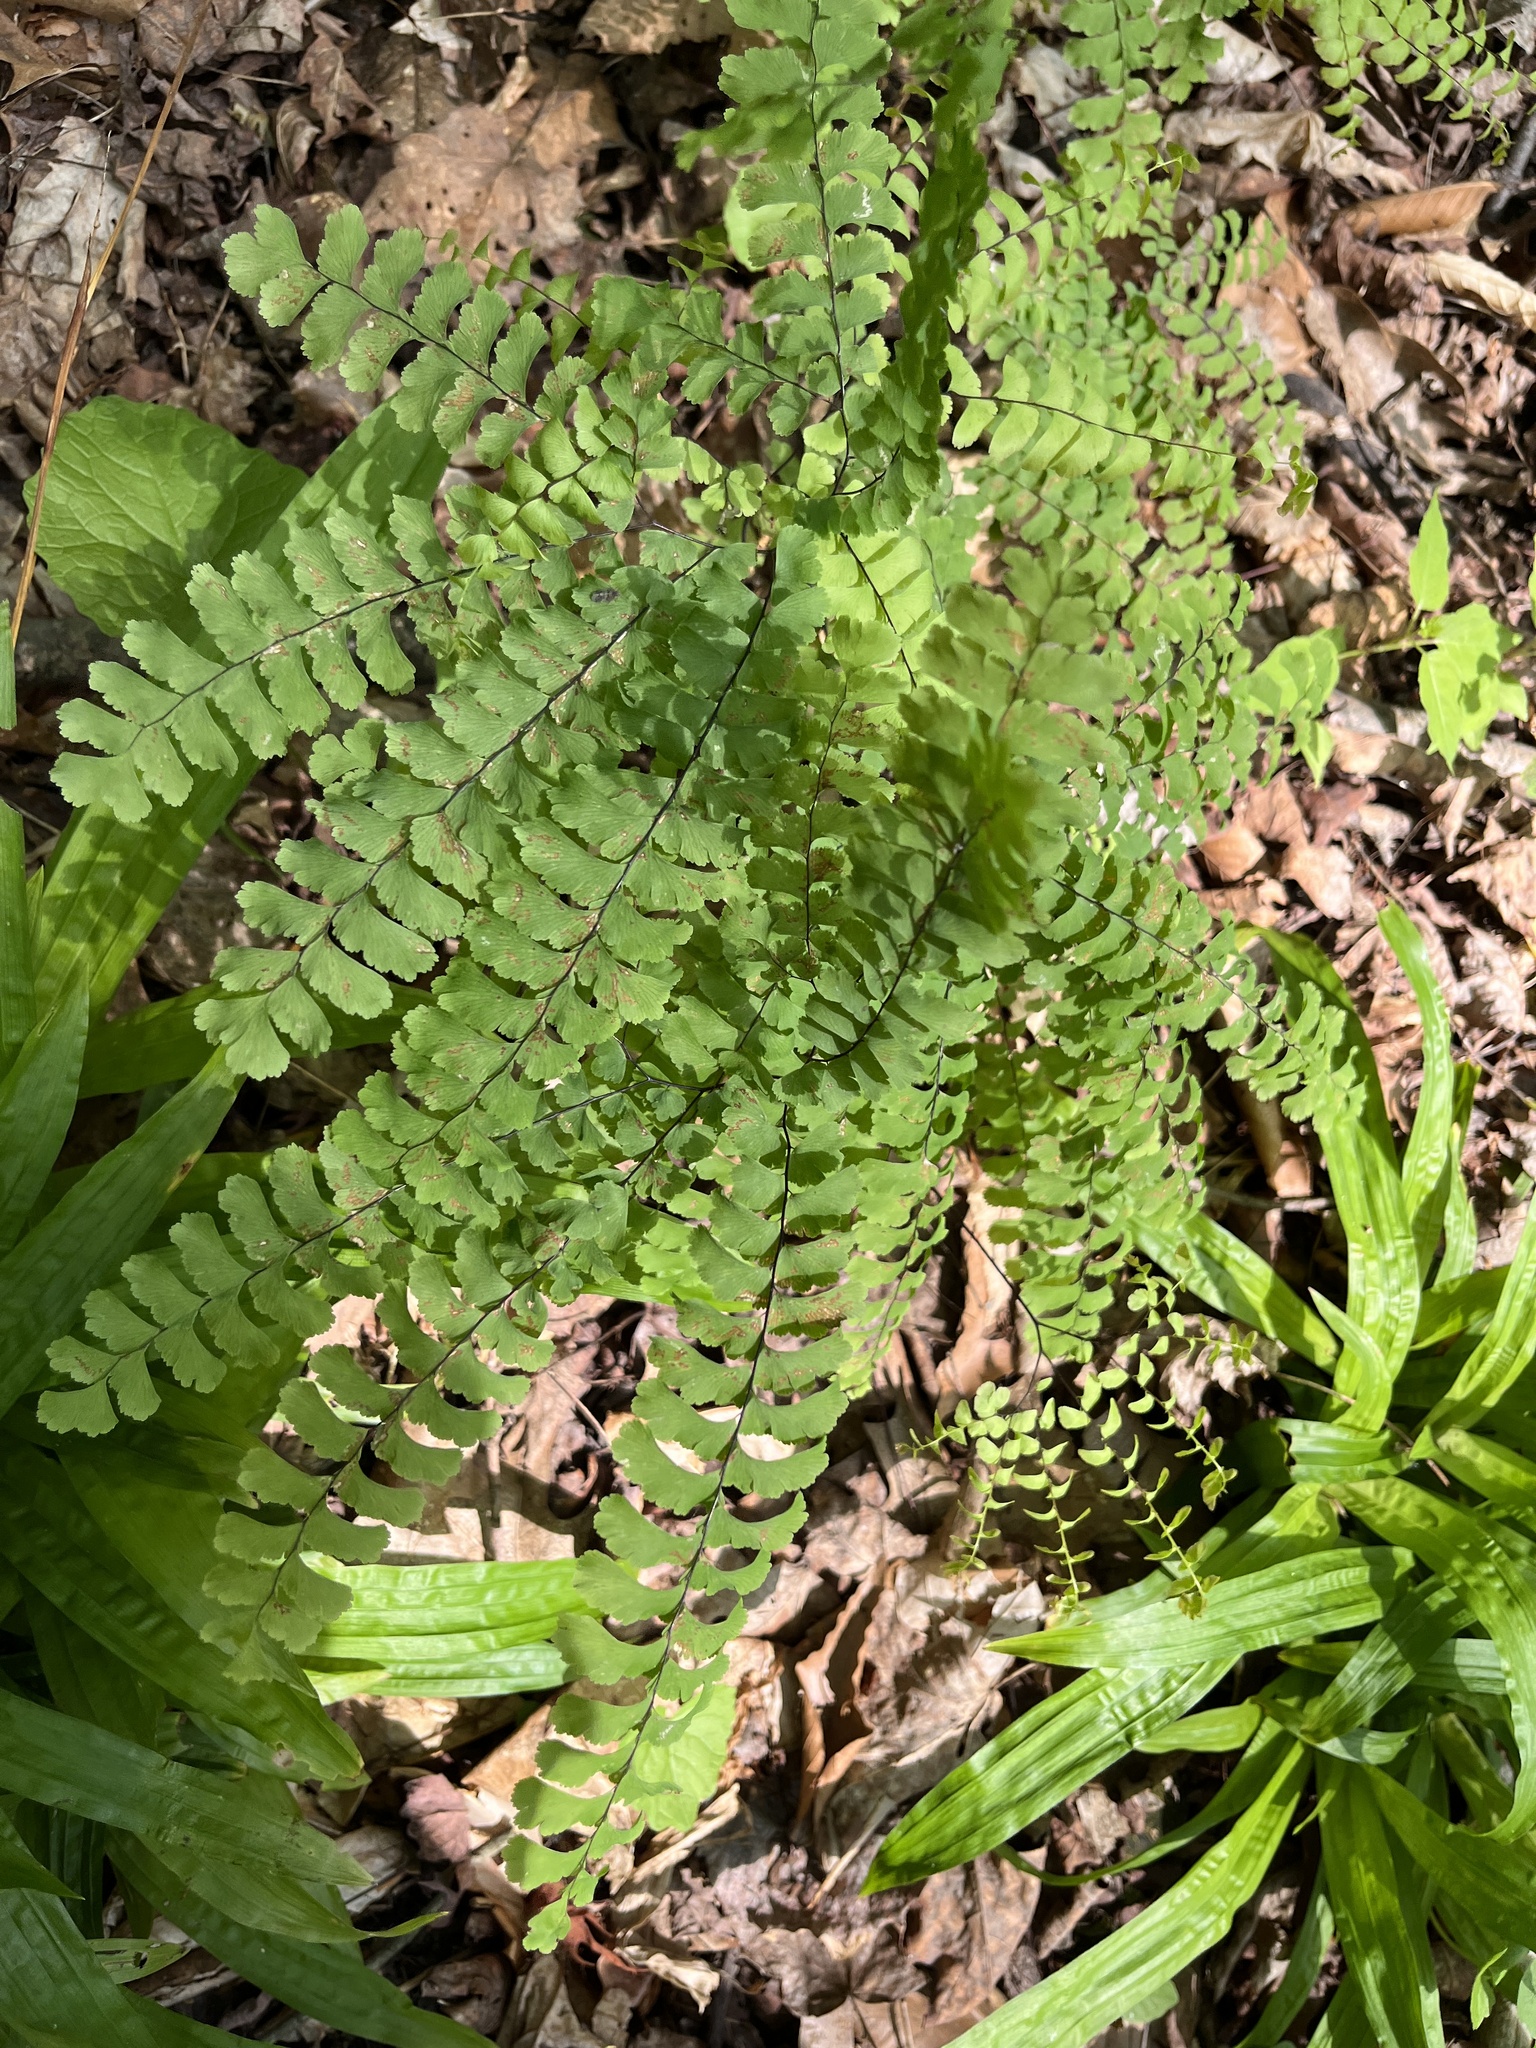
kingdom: Plantae
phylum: Tracheophyta
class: Polypodiopsida
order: Polypodiales
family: Pteridaceae
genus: Adiantum
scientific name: Adiantum pedatum
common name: Five-finger fern
